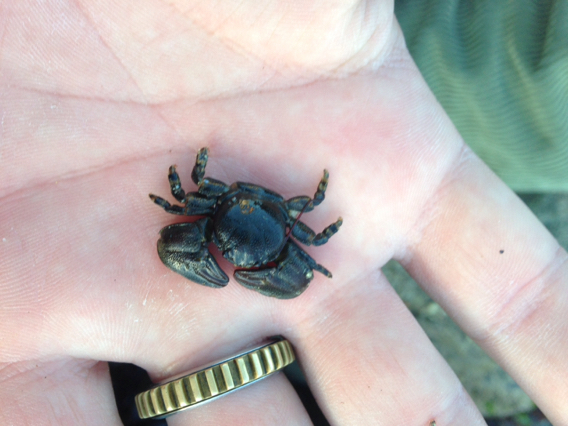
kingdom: Animalia
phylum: Arthropoda
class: Malacostraca
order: Decapoda
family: Porcellanidae
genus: Petrolisthes
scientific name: Petrolisthes cinctipes
